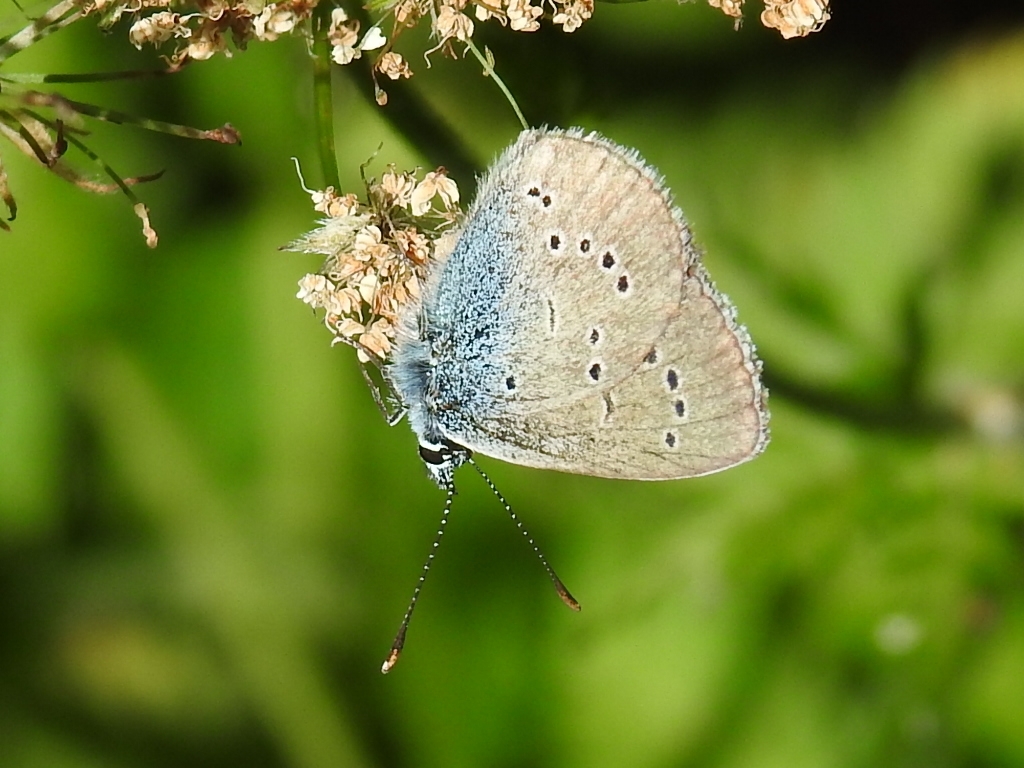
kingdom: Animalia
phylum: Arthropoda
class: Insecta
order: Lepidoptera
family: Lycaenidae
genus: Cyaniris
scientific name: Cyaniris semiargus
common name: Mazarine blue
